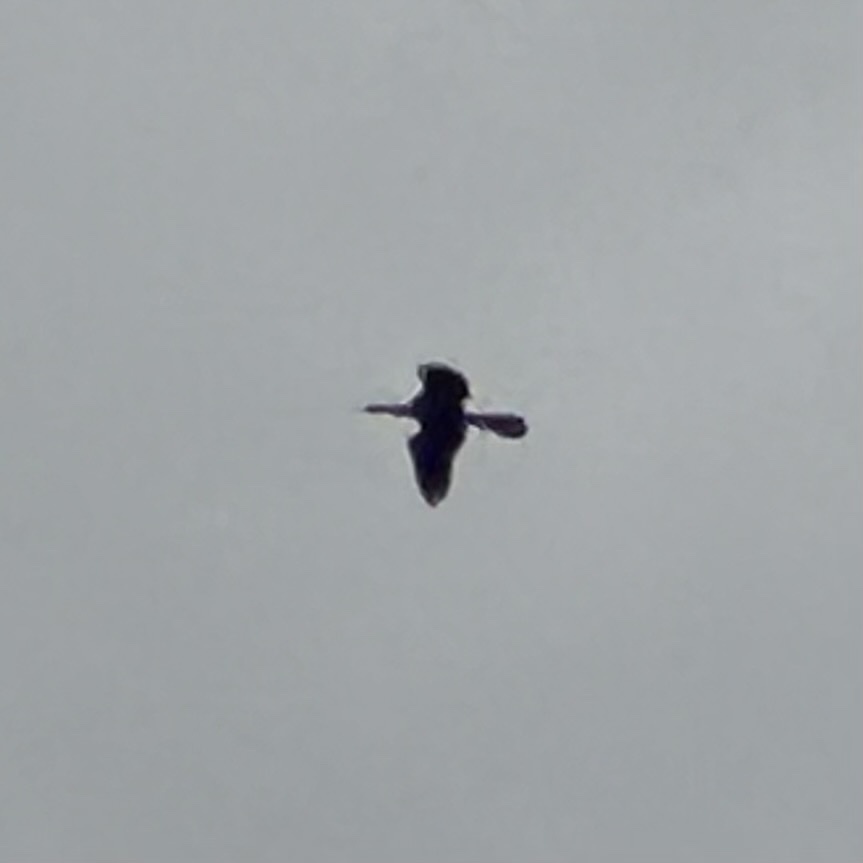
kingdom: Animalia
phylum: Chordata
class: Aves
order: Suliformes
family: Anhingidae
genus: Anhinga
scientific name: Anhinga anhinga
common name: Anhinga
